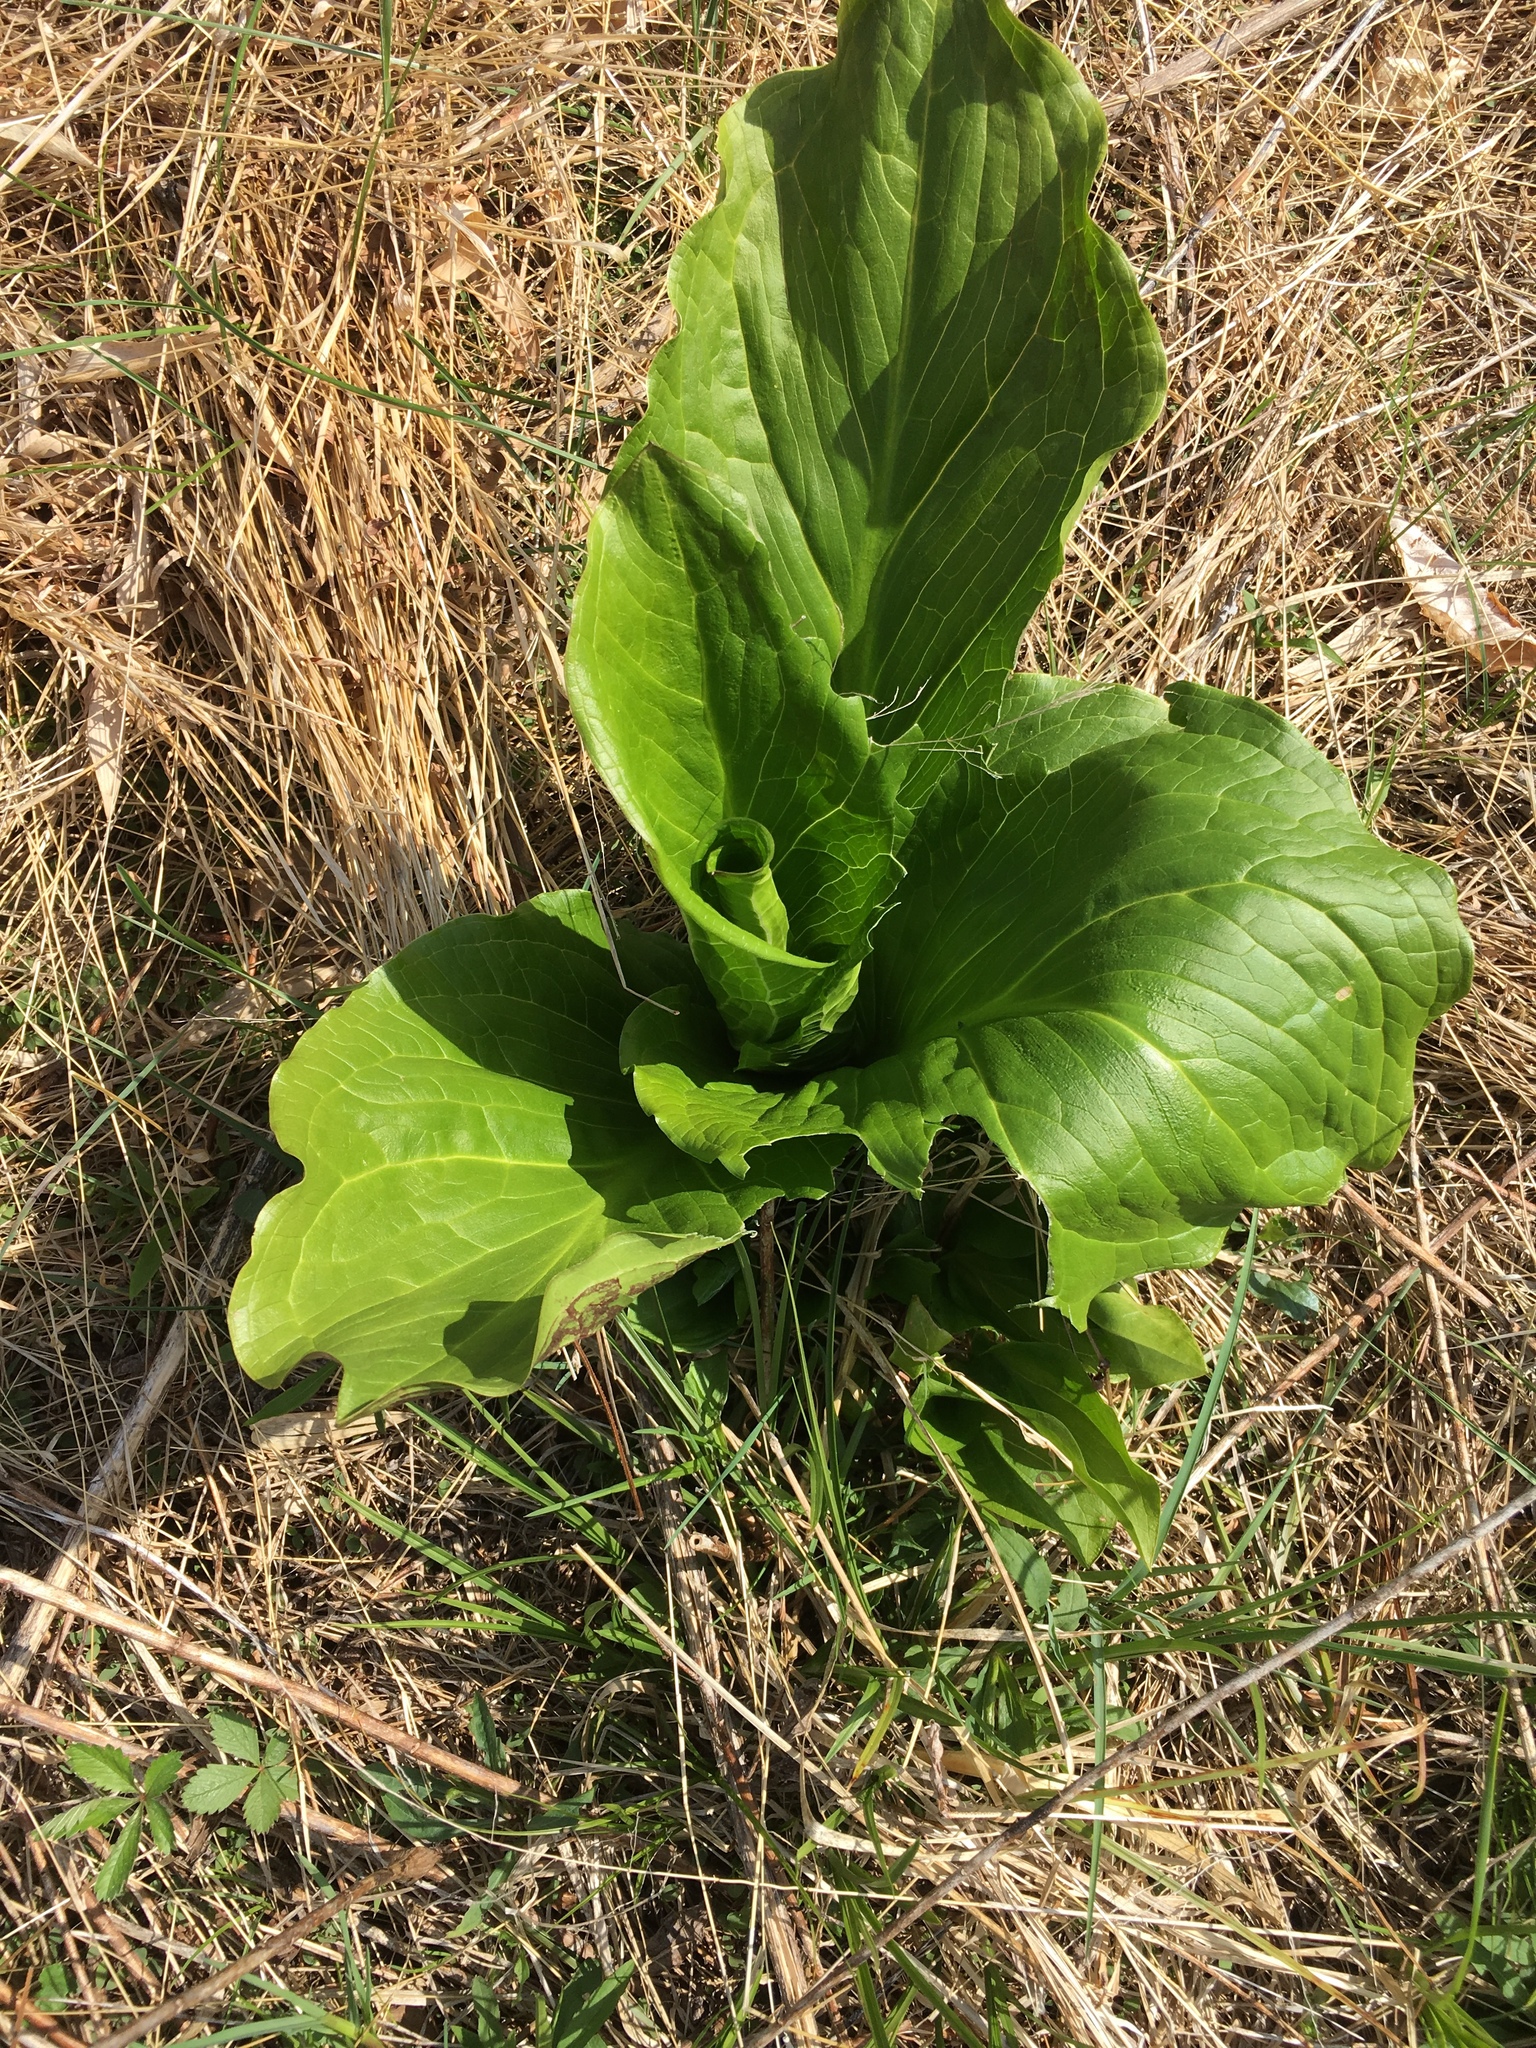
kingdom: Plantae
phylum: Tracheophyta
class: Liliopsida
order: Alismatales
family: Araceae
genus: Symplocarpus
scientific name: Symplocarpus foetidus
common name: Eastern skunk cabbage
